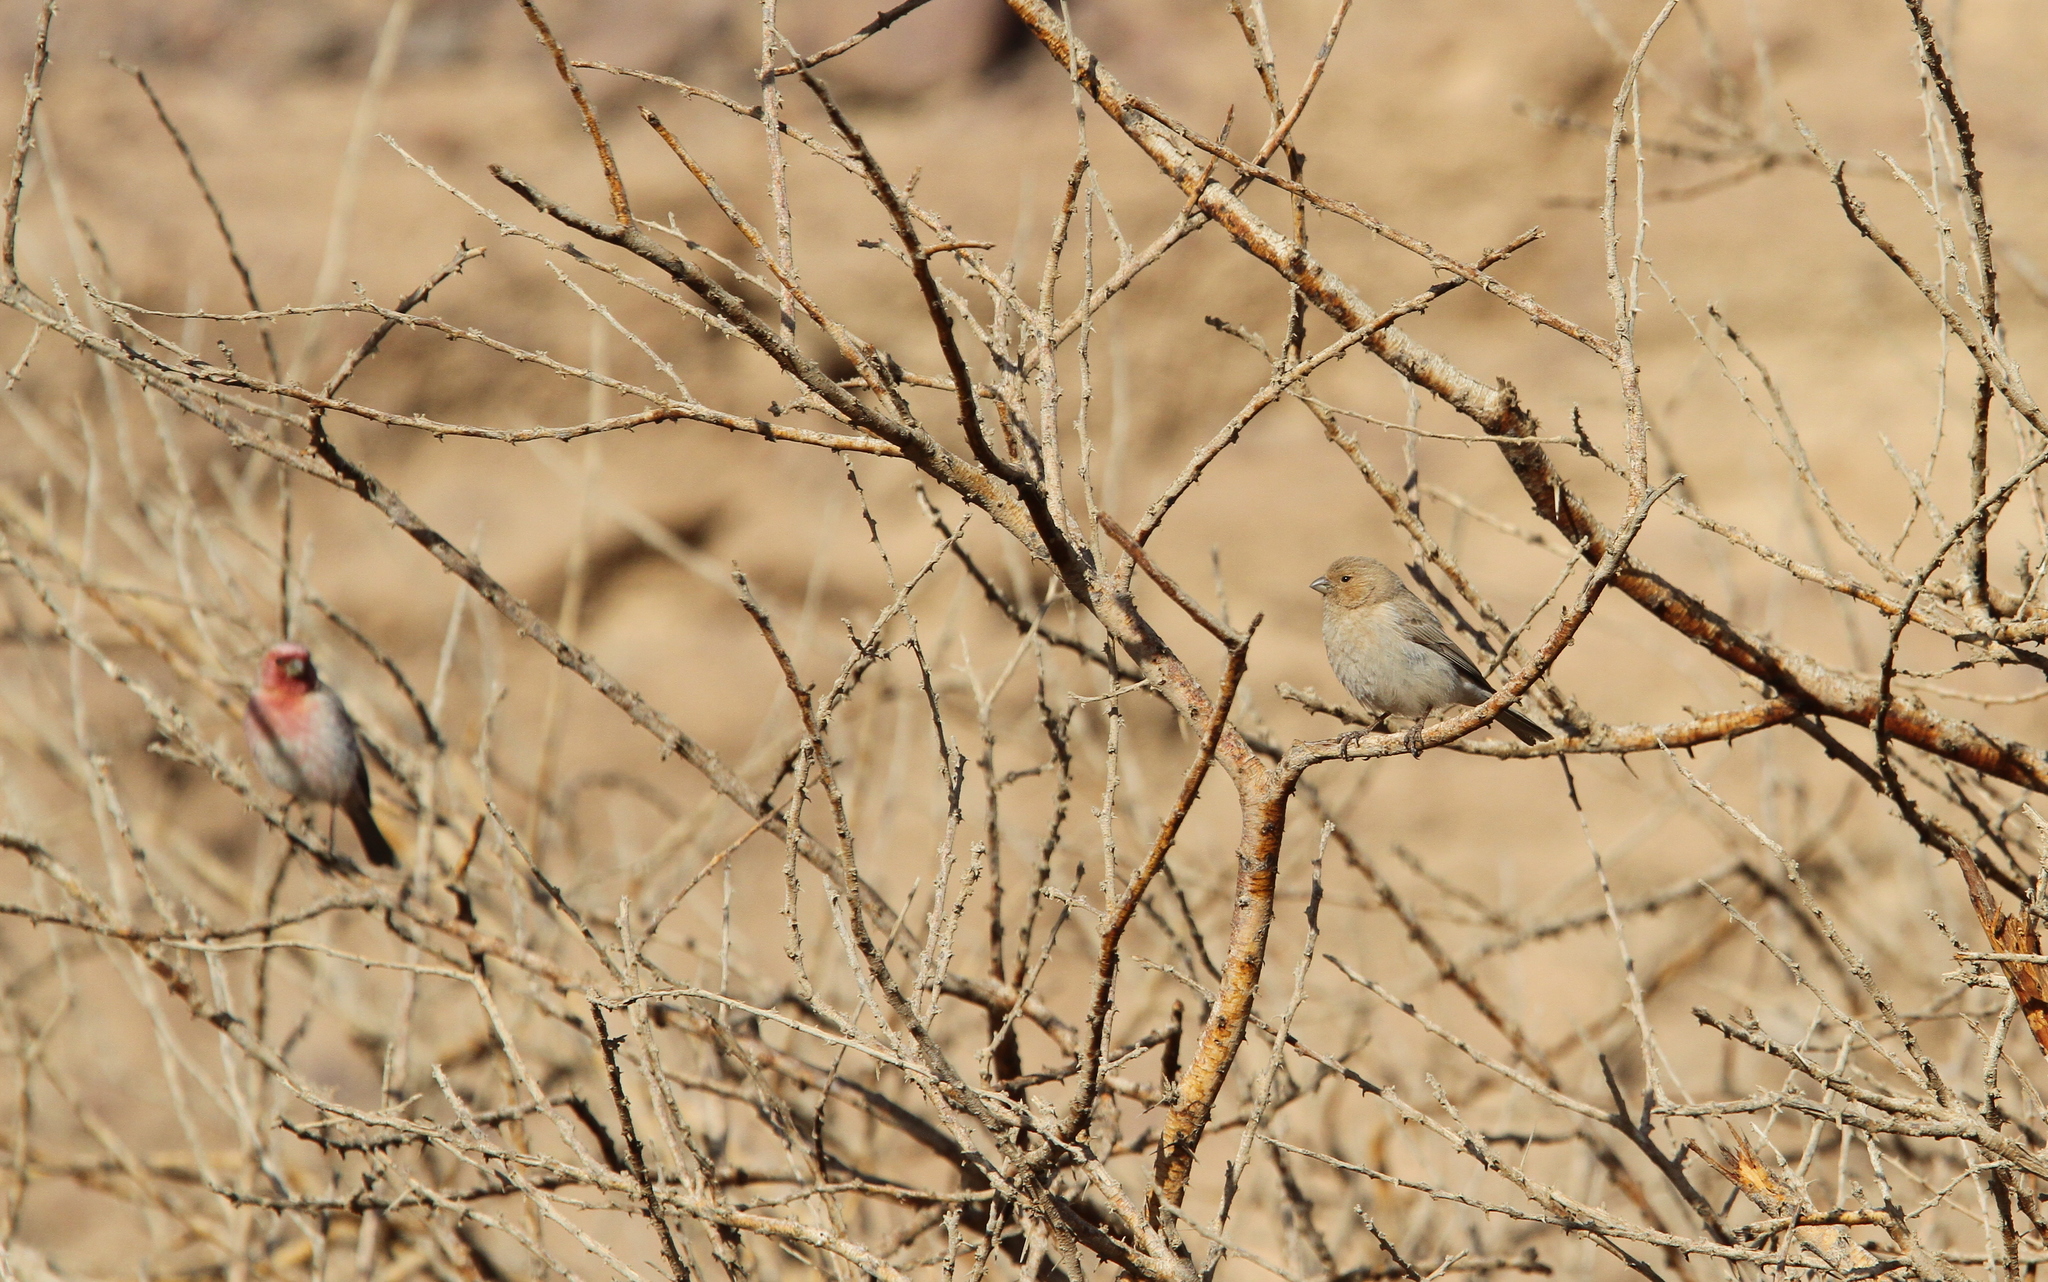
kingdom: Animalia
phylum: Chordata
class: Aves
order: Passeriformes
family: Fringillidae
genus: Carpodacus
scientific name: Carpodacus synoicus
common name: Sinai rosefinch
